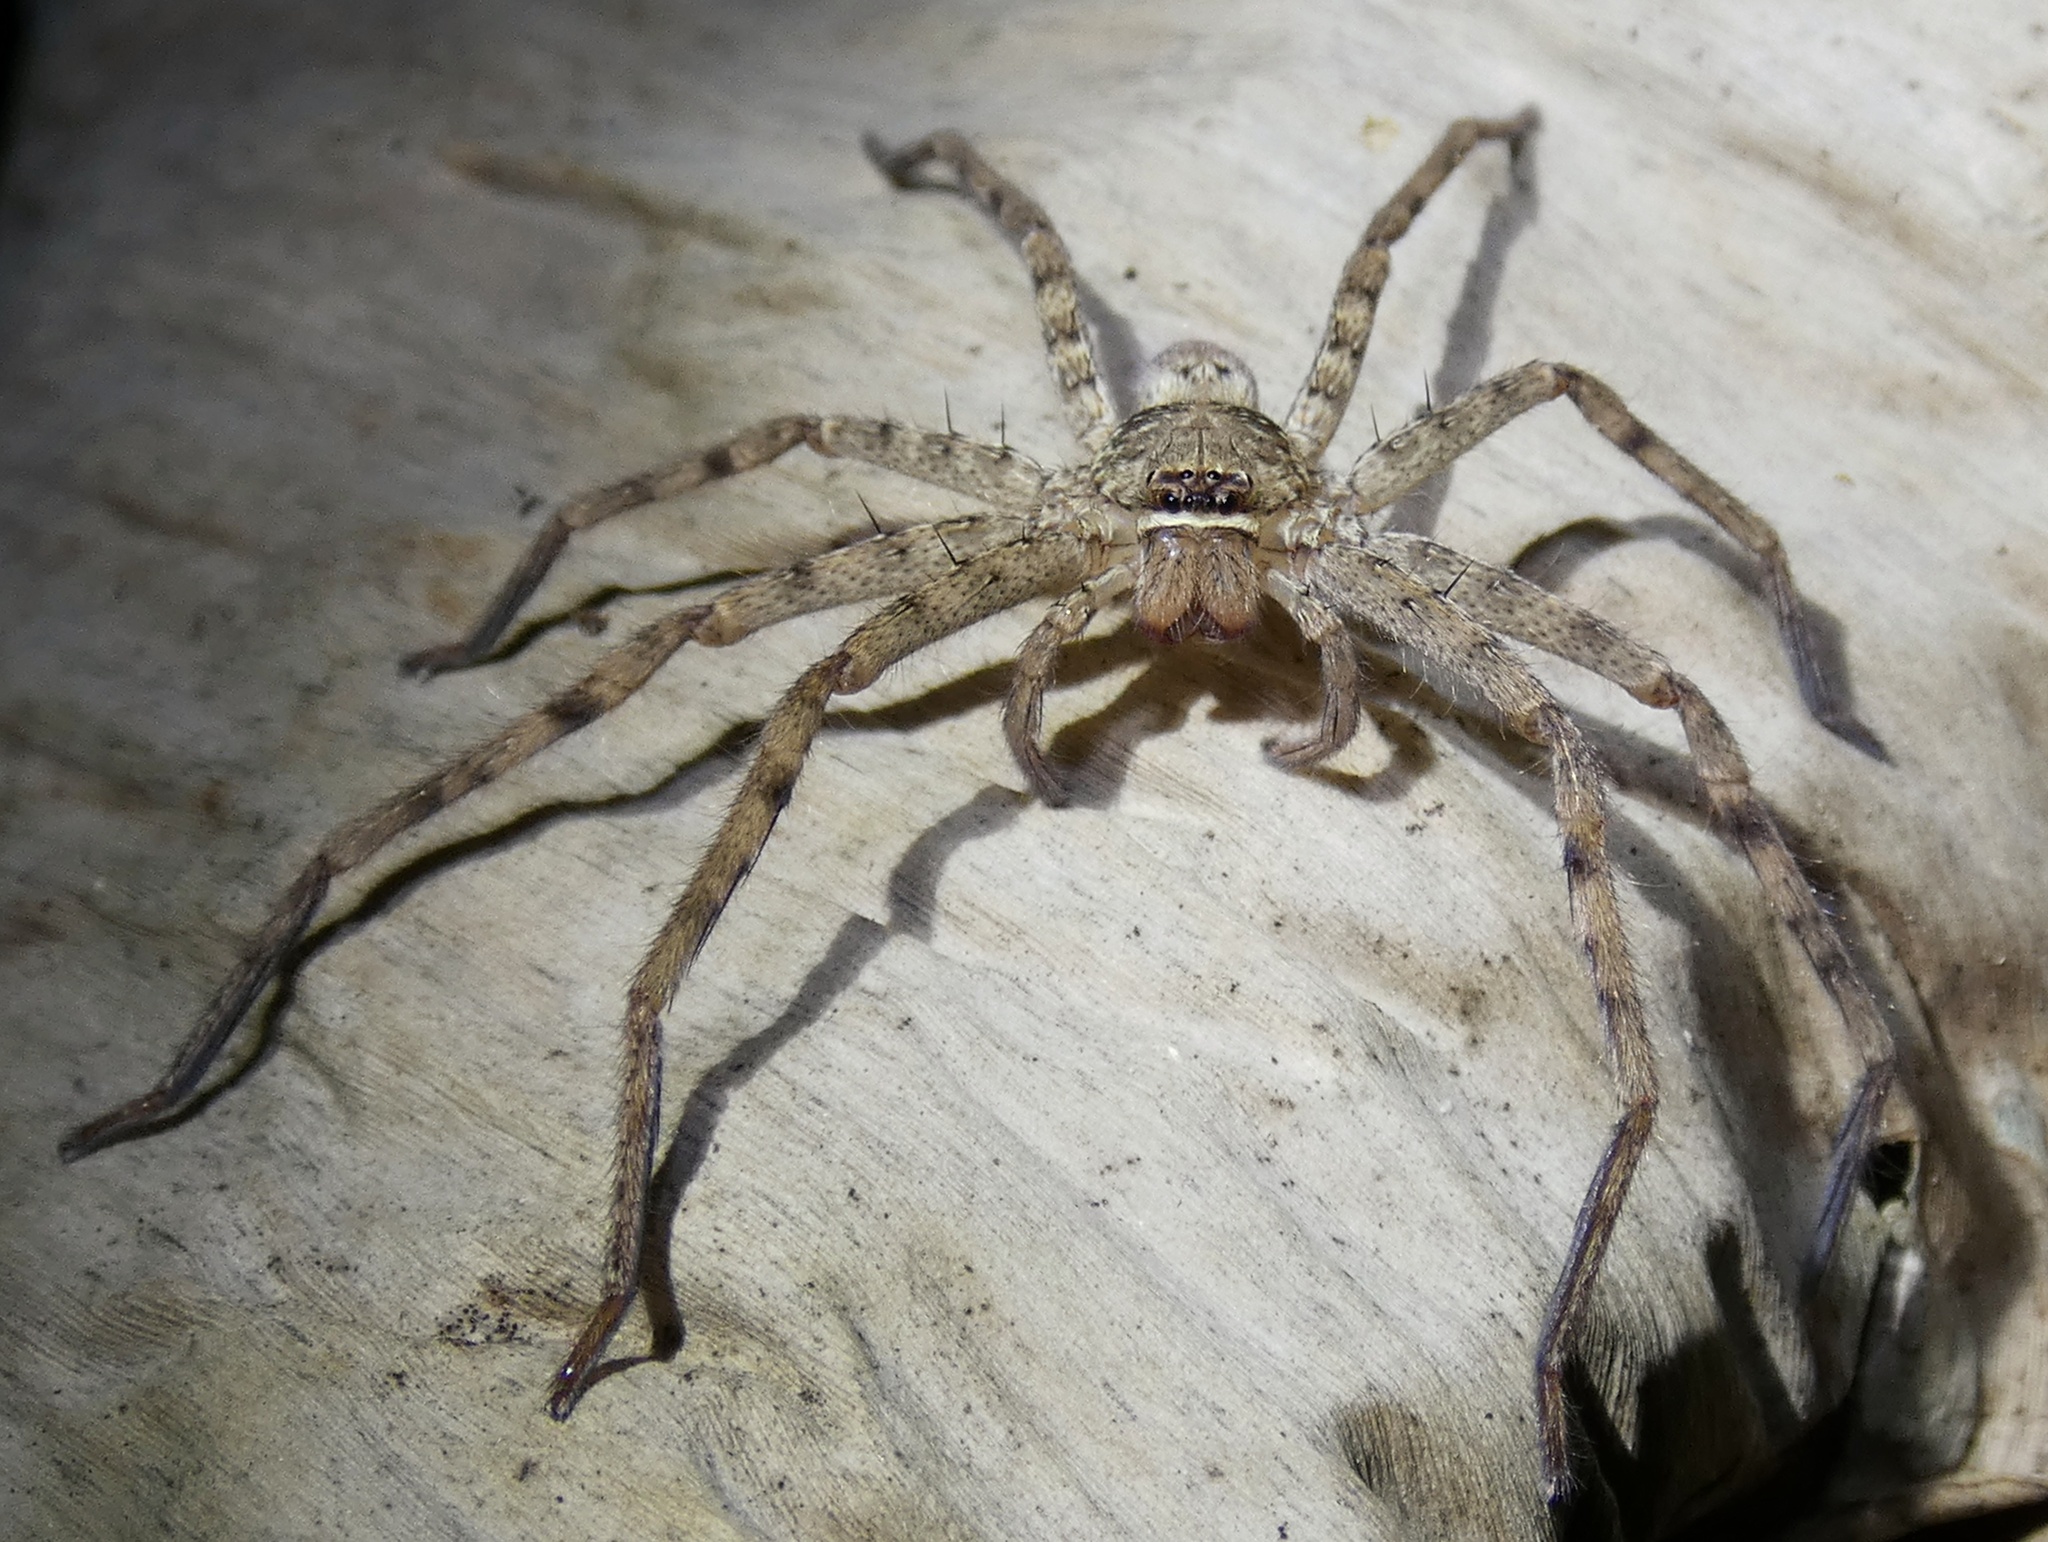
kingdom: Animalia
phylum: Arthropoda
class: Arachnida
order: Araneae
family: Sparassidae
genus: Heteropoda
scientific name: Heteropoda venatoria
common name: Huntsman spider
